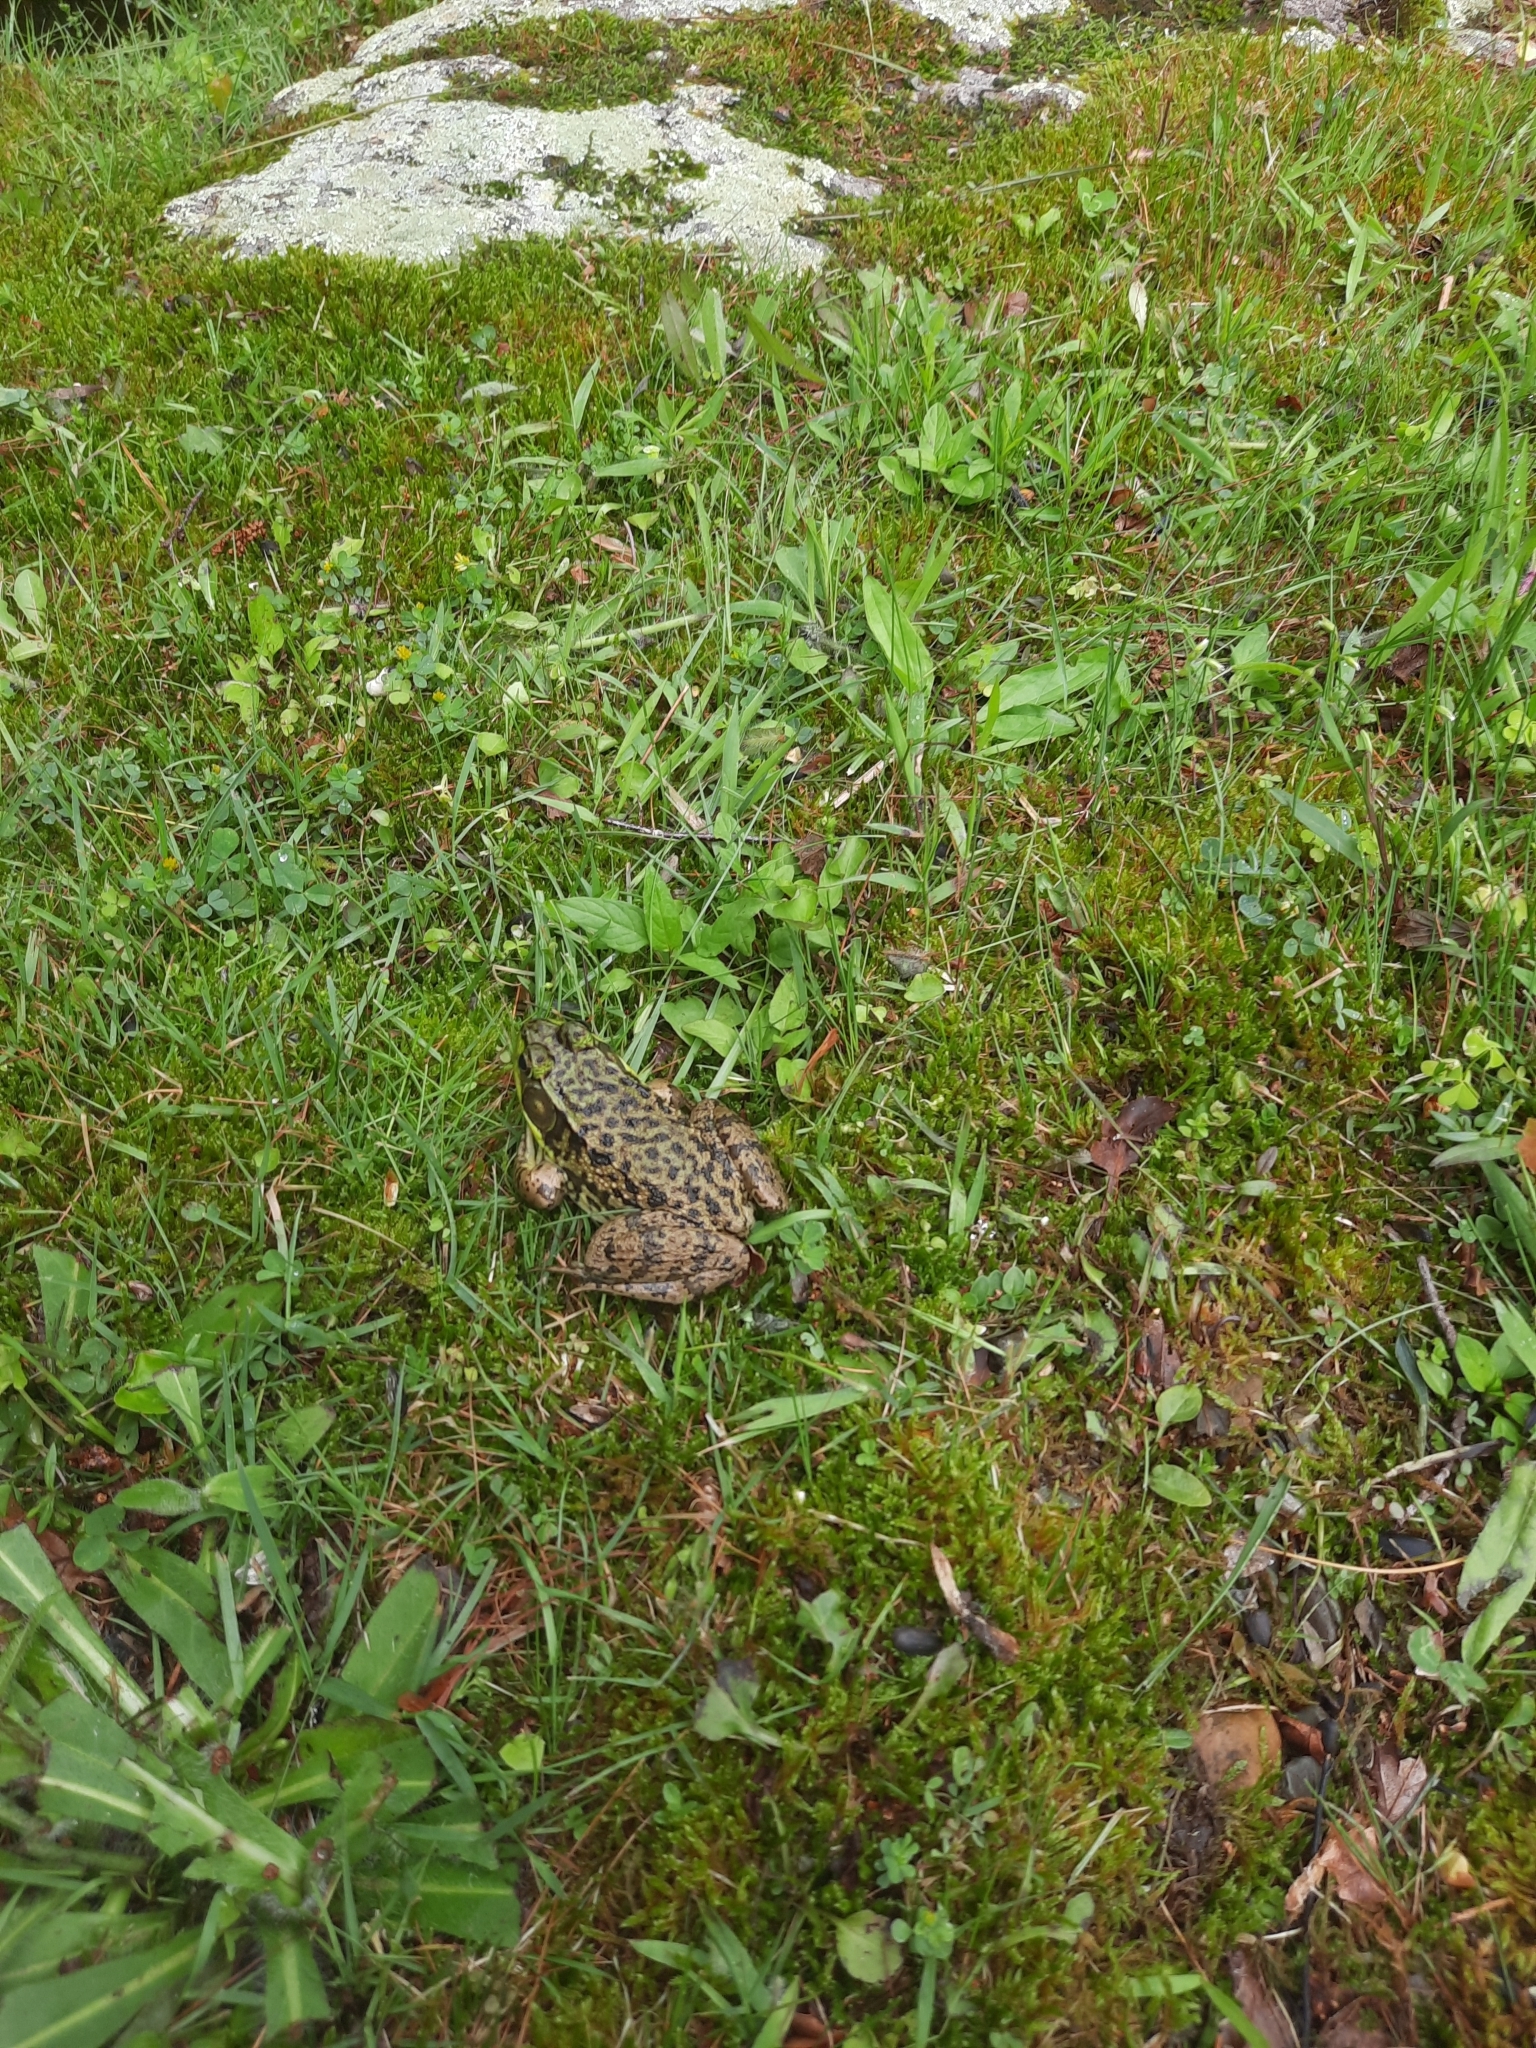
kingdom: Animalia
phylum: Chordata
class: Amphibia
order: Anura
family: Ranidae
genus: Lithobates
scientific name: Lithobates clamitans
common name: Green frog
